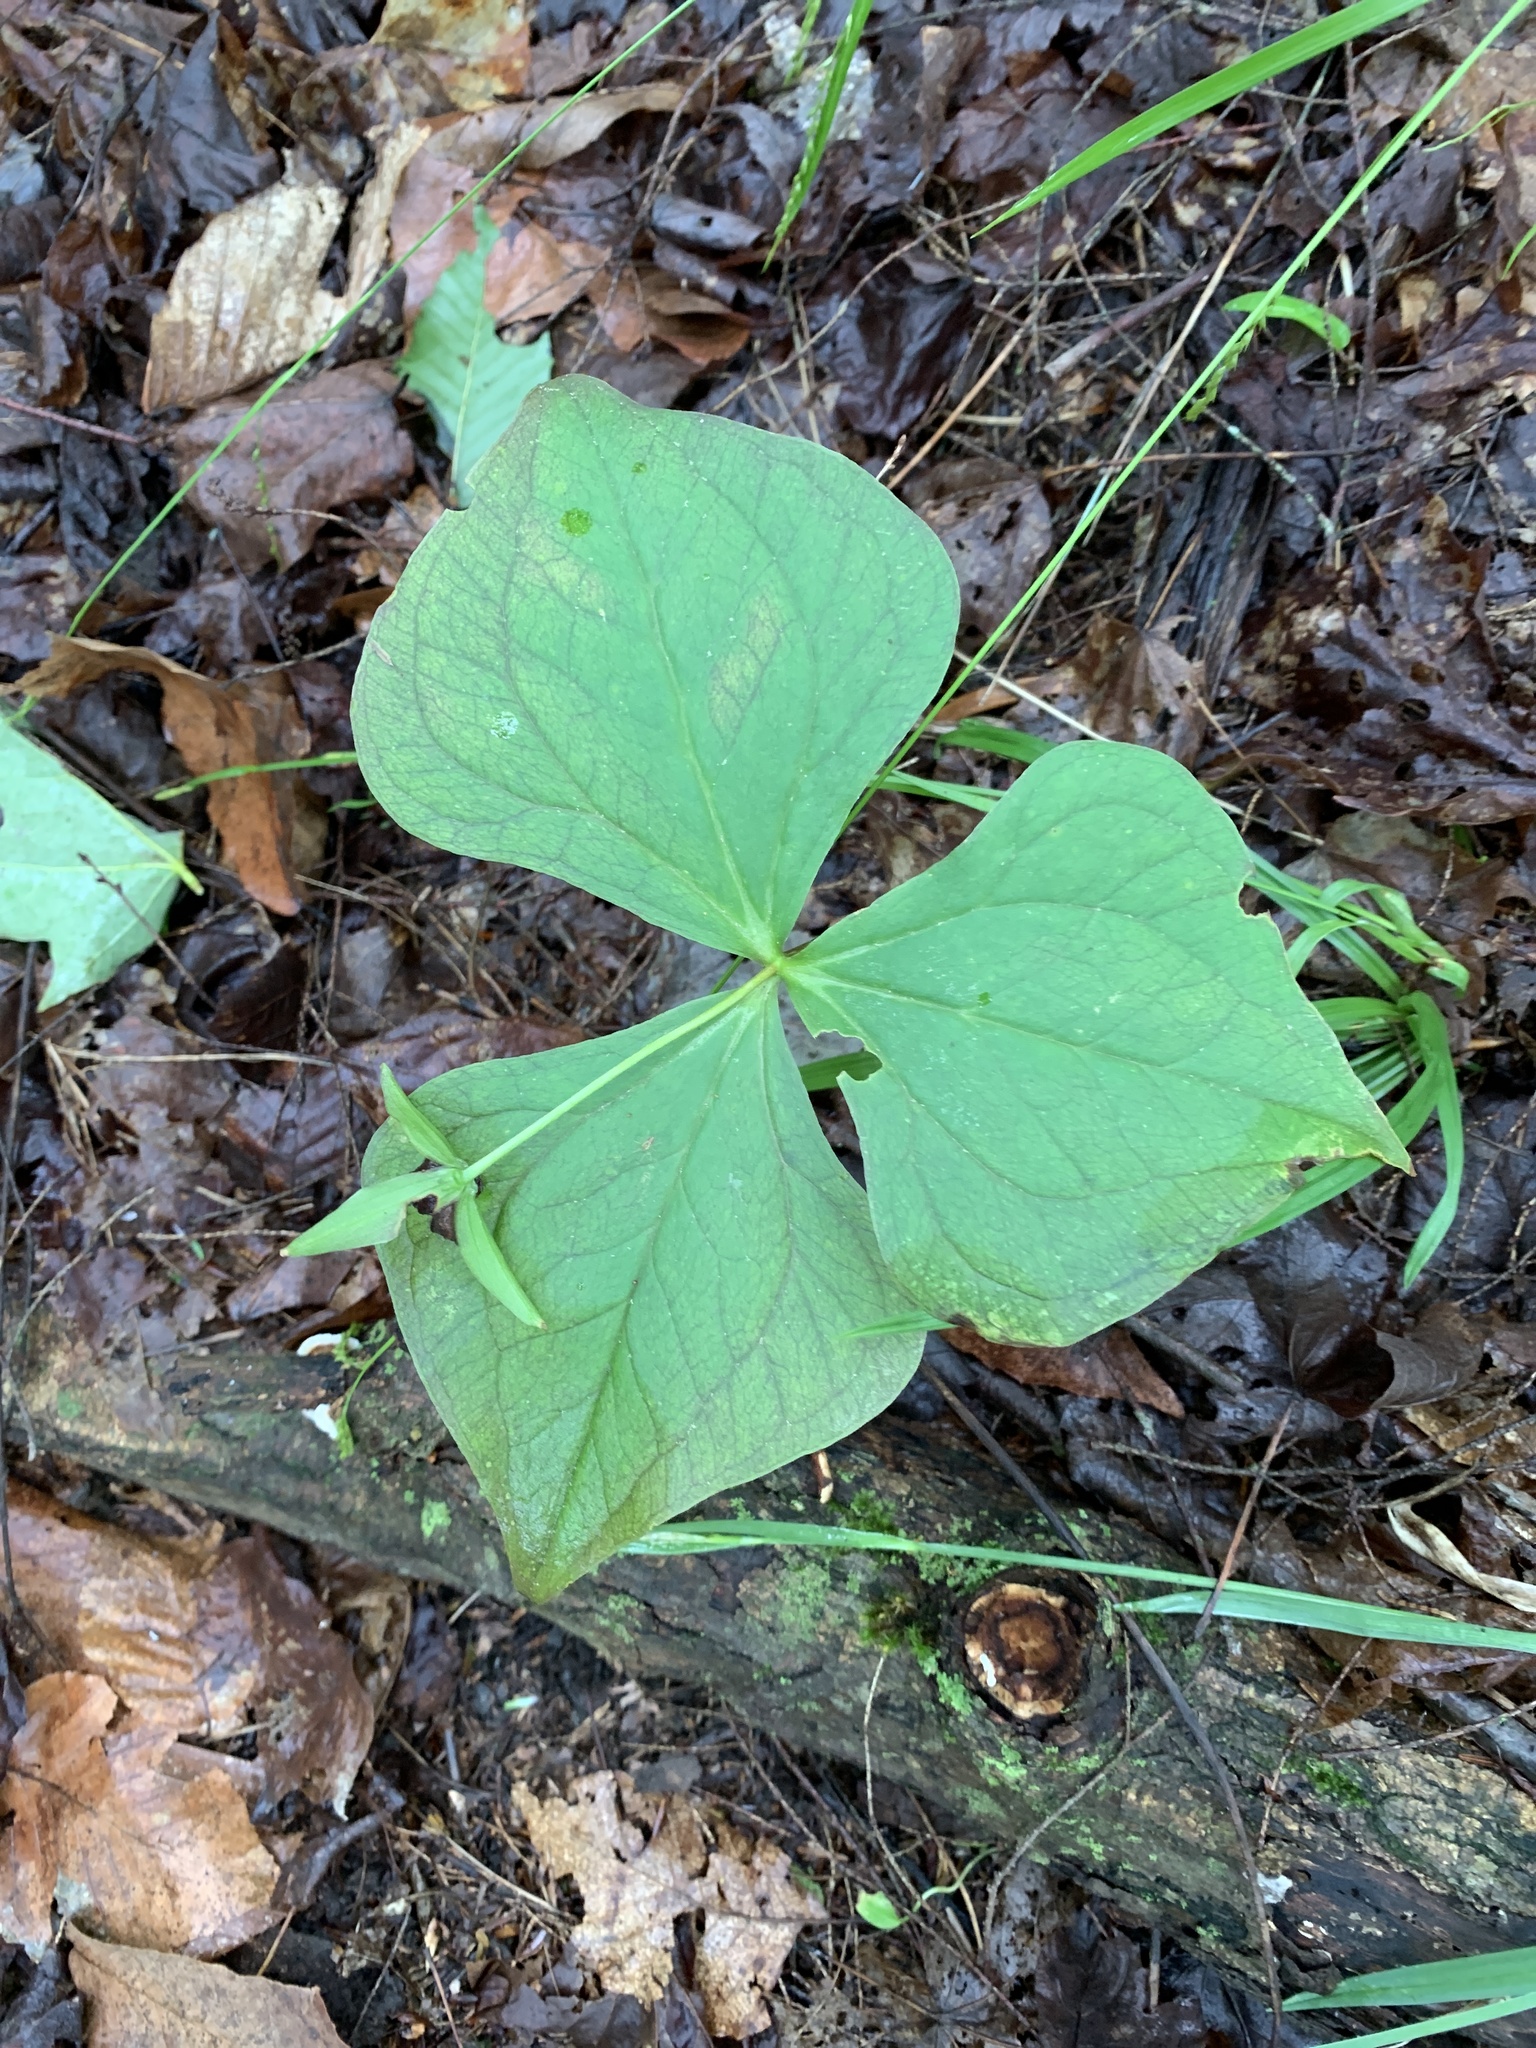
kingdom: Plantae
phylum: Tracheophyta
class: Liliopsida
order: Liliales
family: Melanthiaceae
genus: Trillium
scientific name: Trillium erectum
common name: Purple trillium
